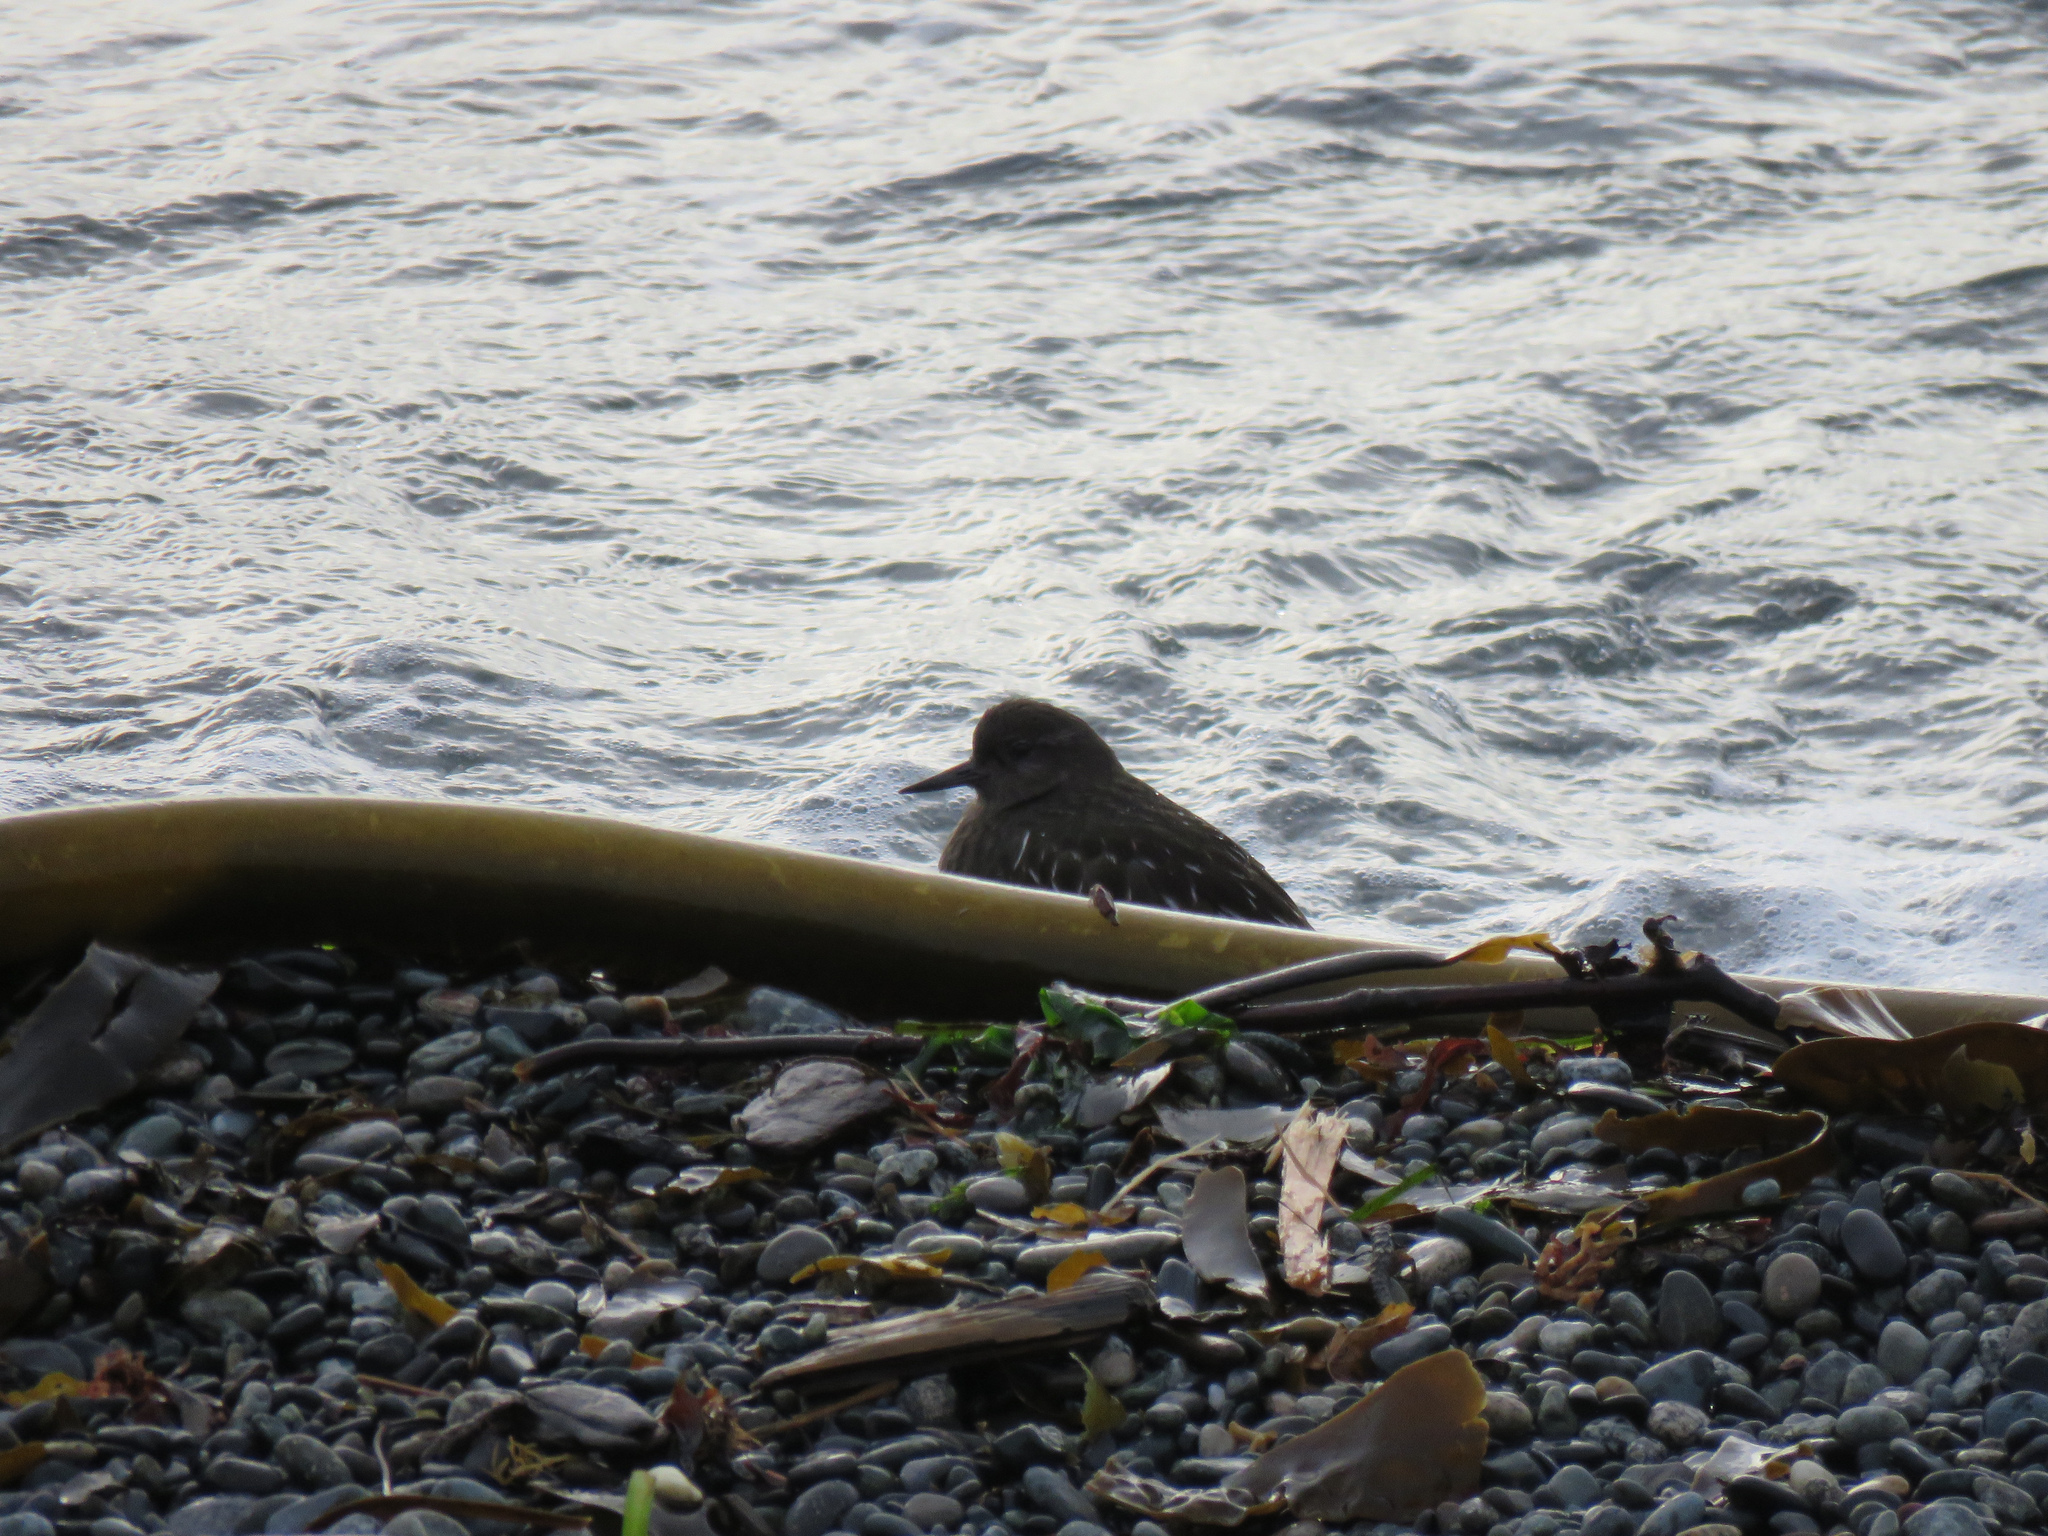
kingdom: Animalia
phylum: Chordata
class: Aves
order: Charadriiformes
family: Scolopacidae
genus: Arenaria
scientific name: Arenaria melanocephala
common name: Black turnstone
